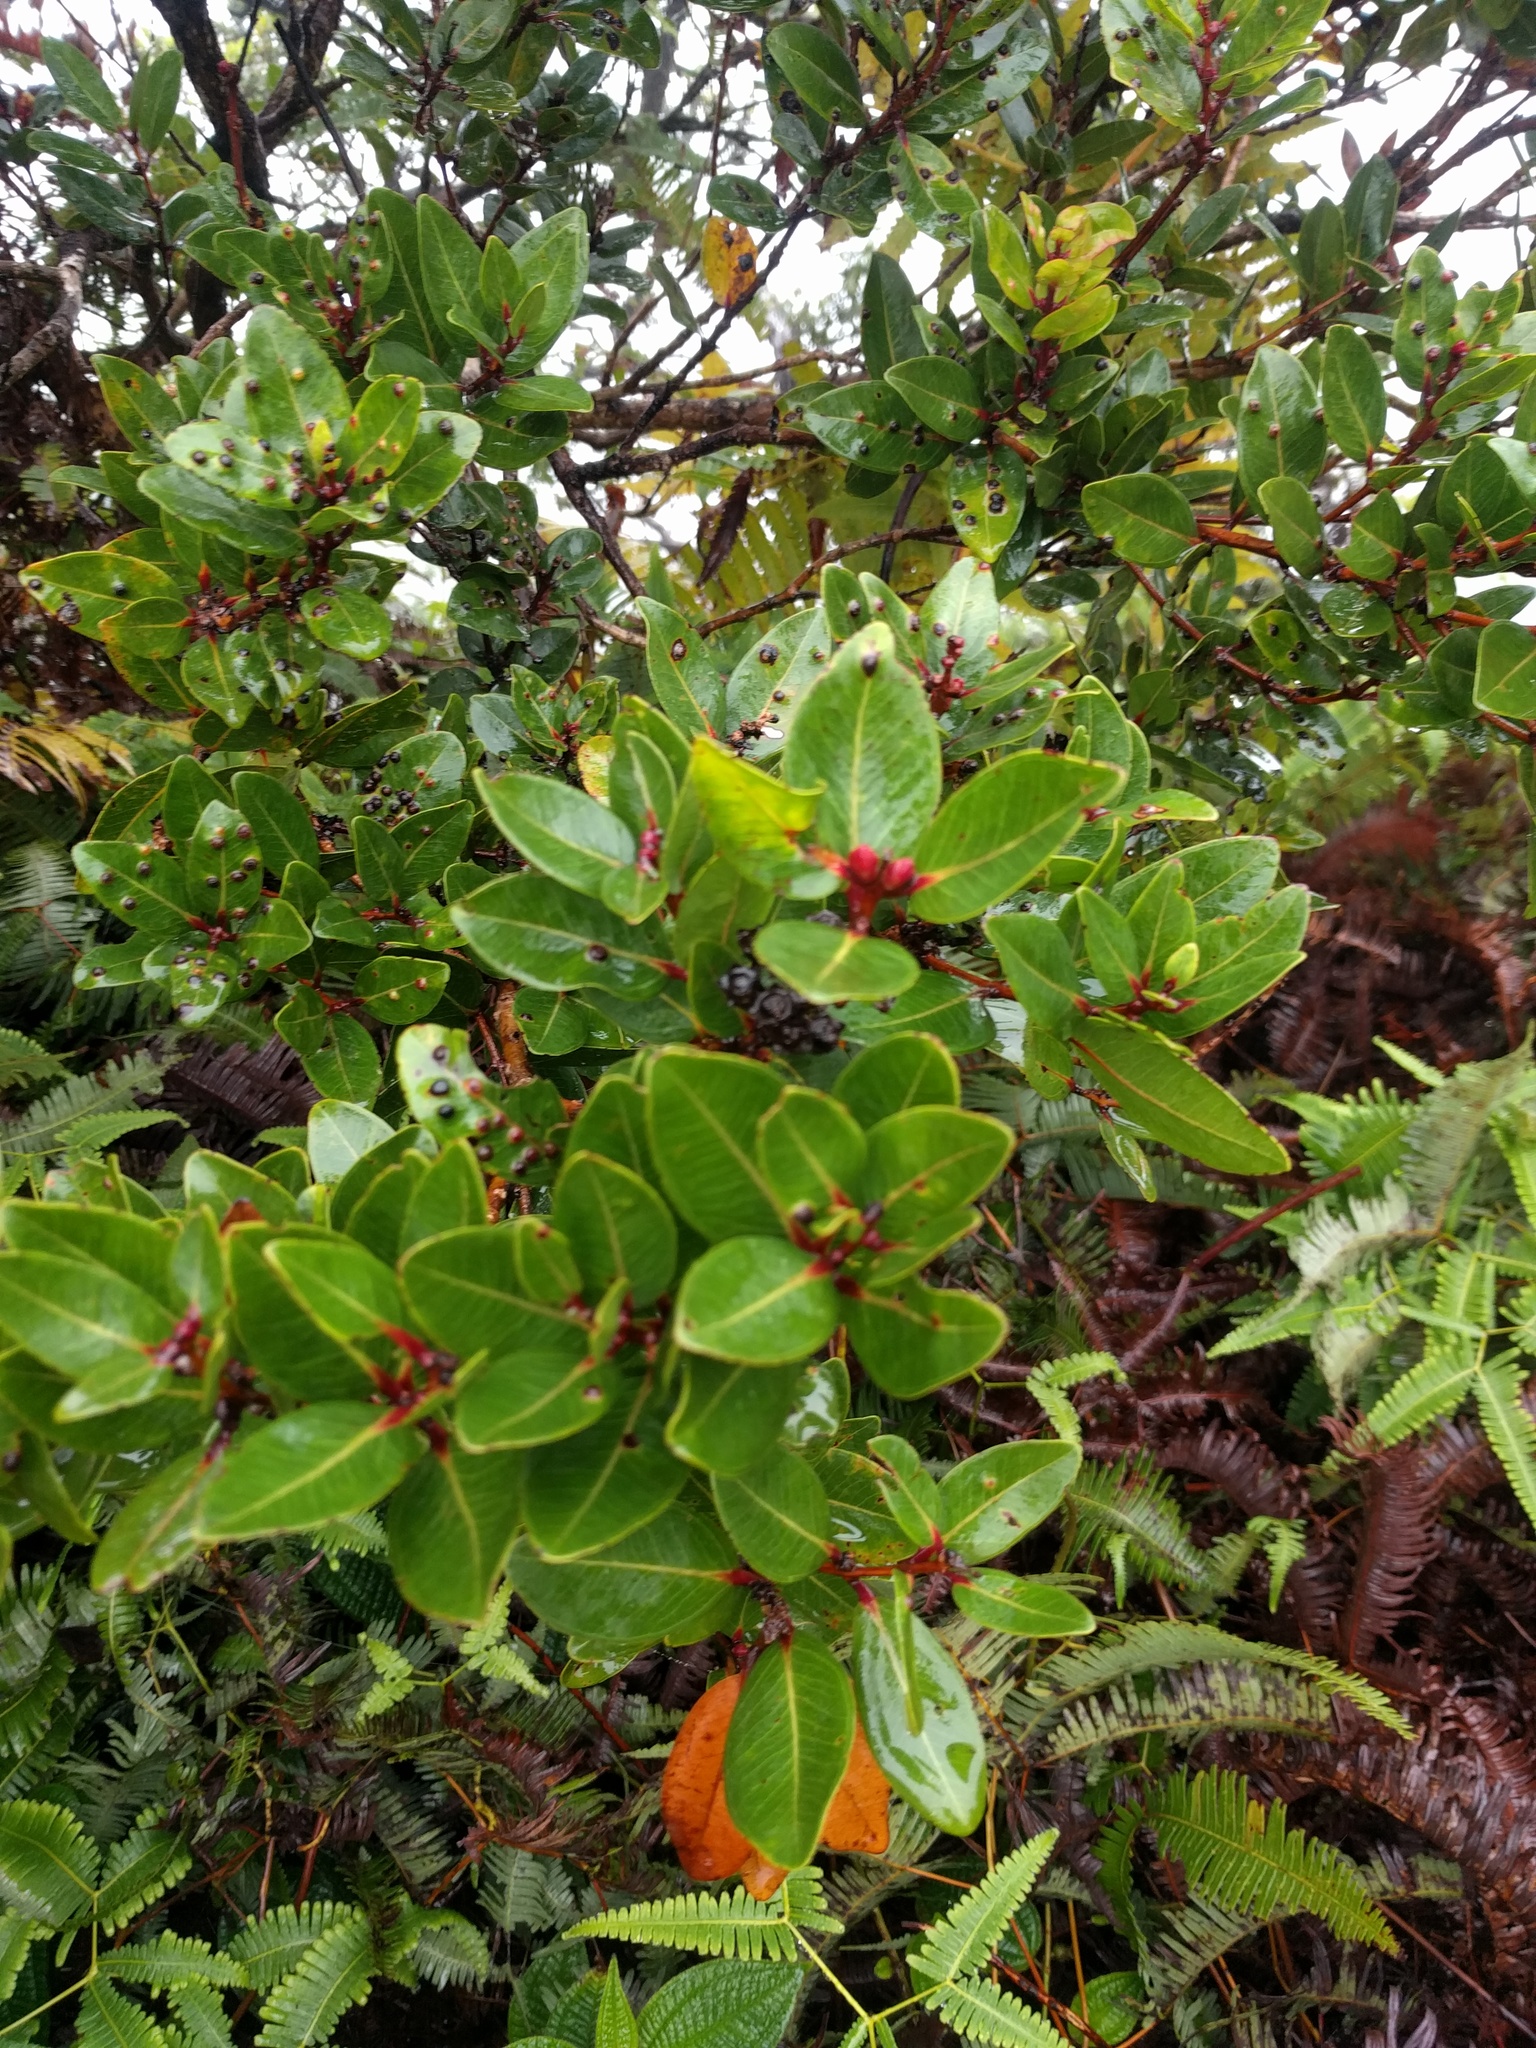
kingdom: Plantae
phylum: Tracheophyta
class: Magnoliopsida
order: Myrtales
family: Myrtaceae
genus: Metrosideros
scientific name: Metrosideros polymorpha
